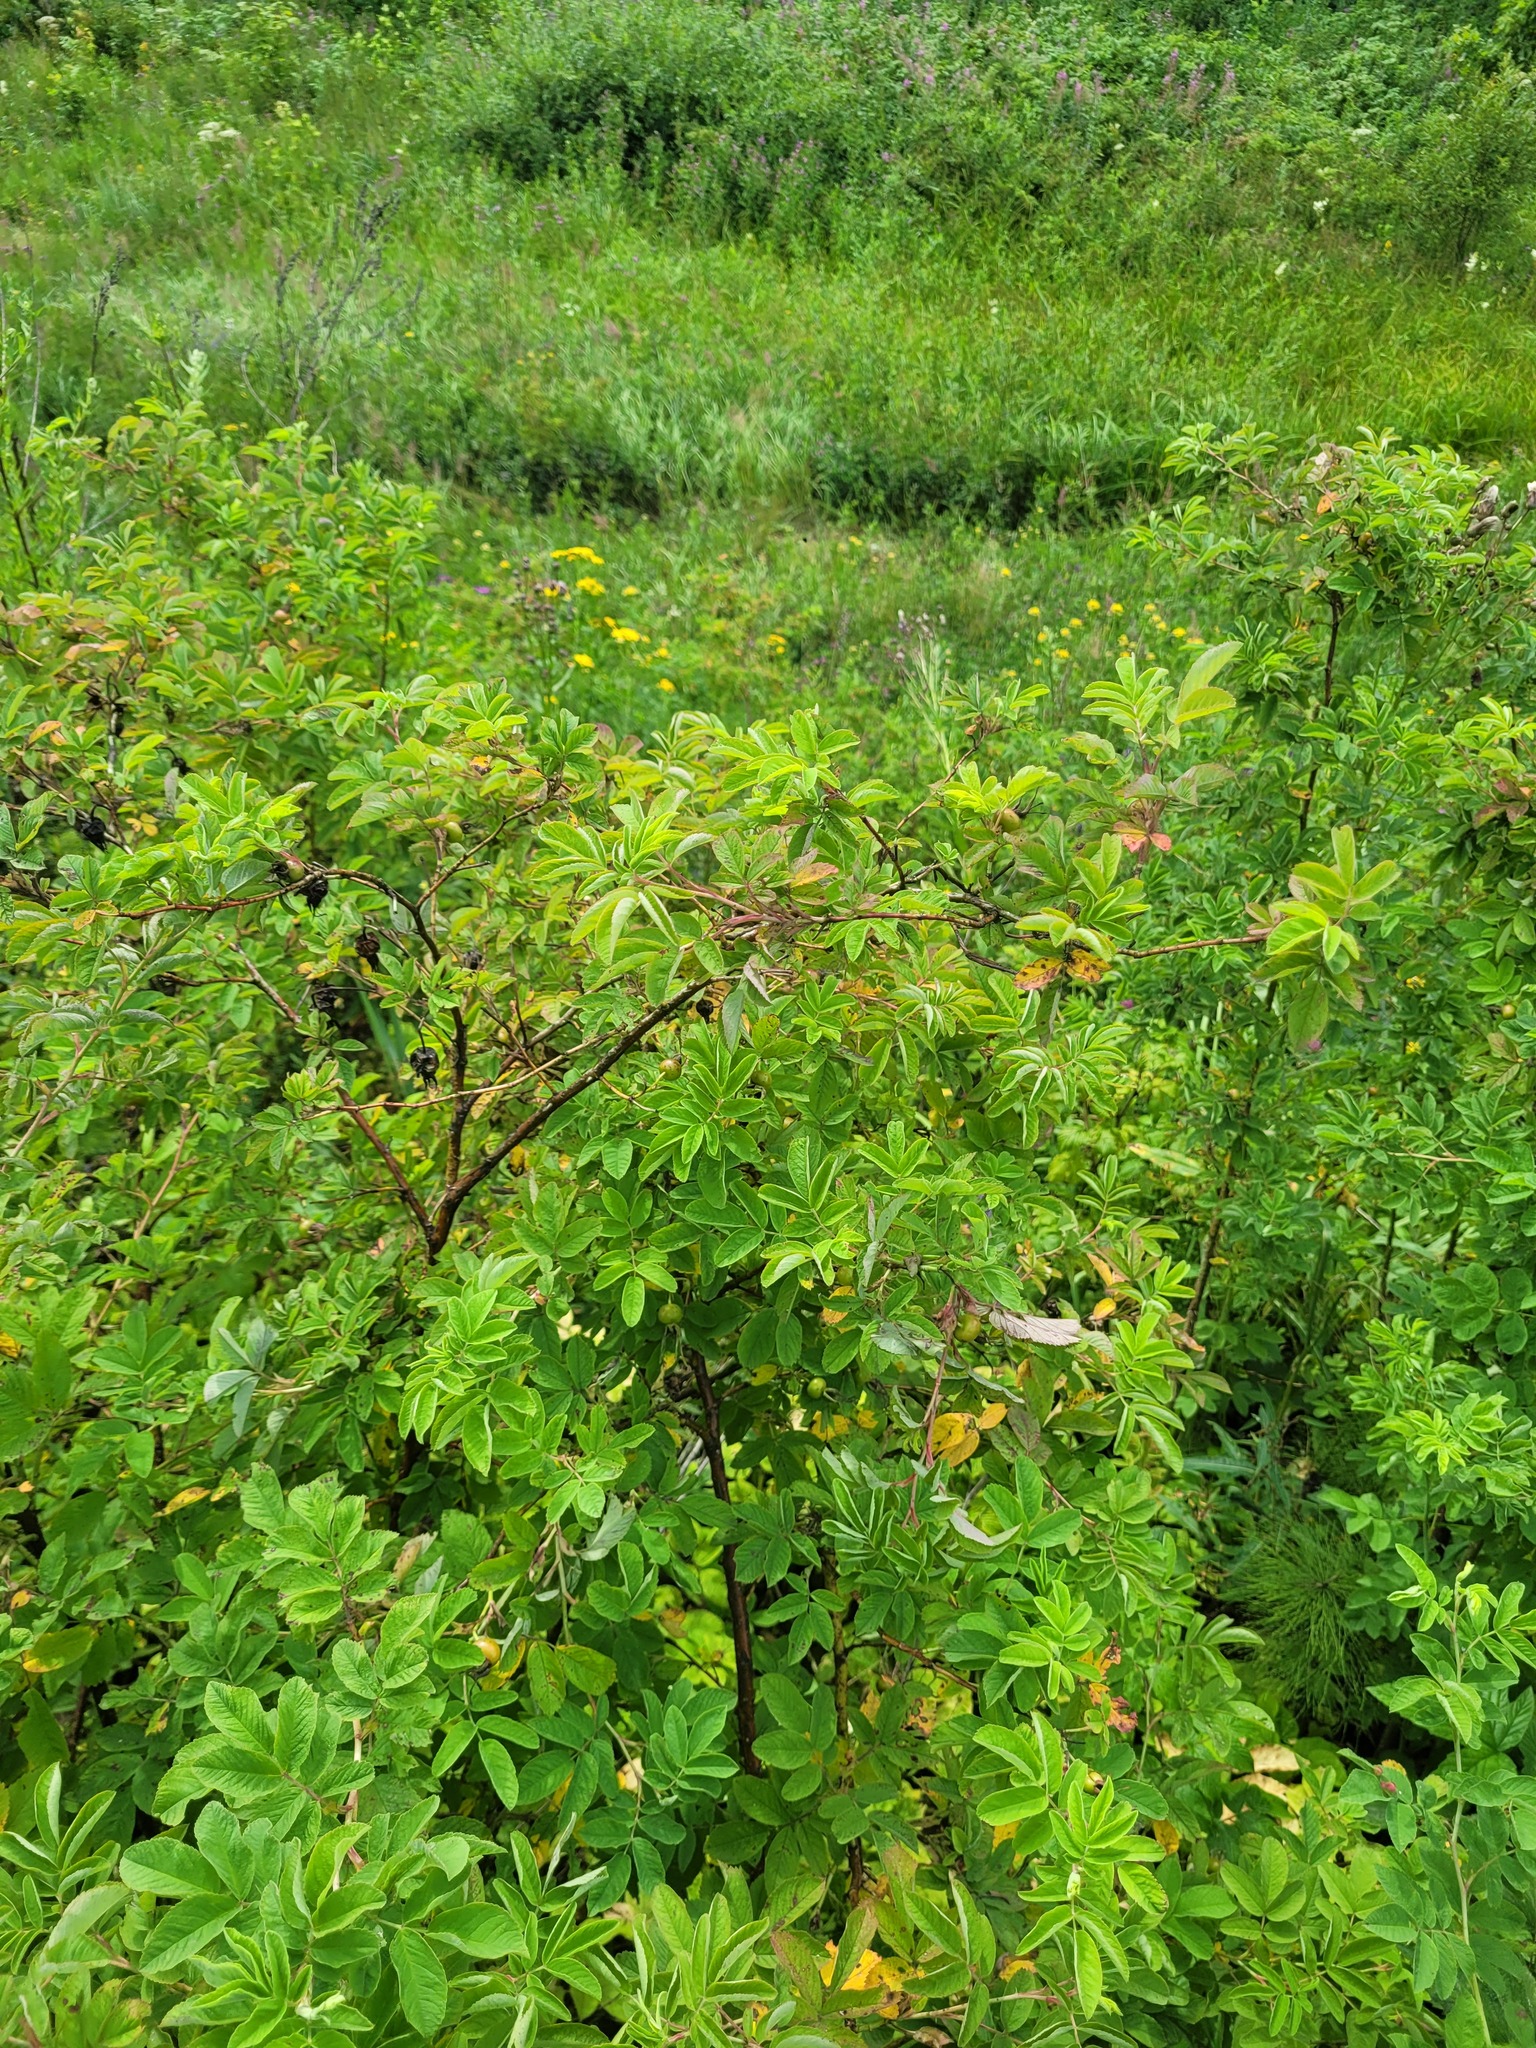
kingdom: Plantae
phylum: Tracheophyta
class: Magnoliopsida
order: Rosales
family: Rosaceae
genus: Rosa
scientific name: Rosa majalis
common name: Cinnamon rose
